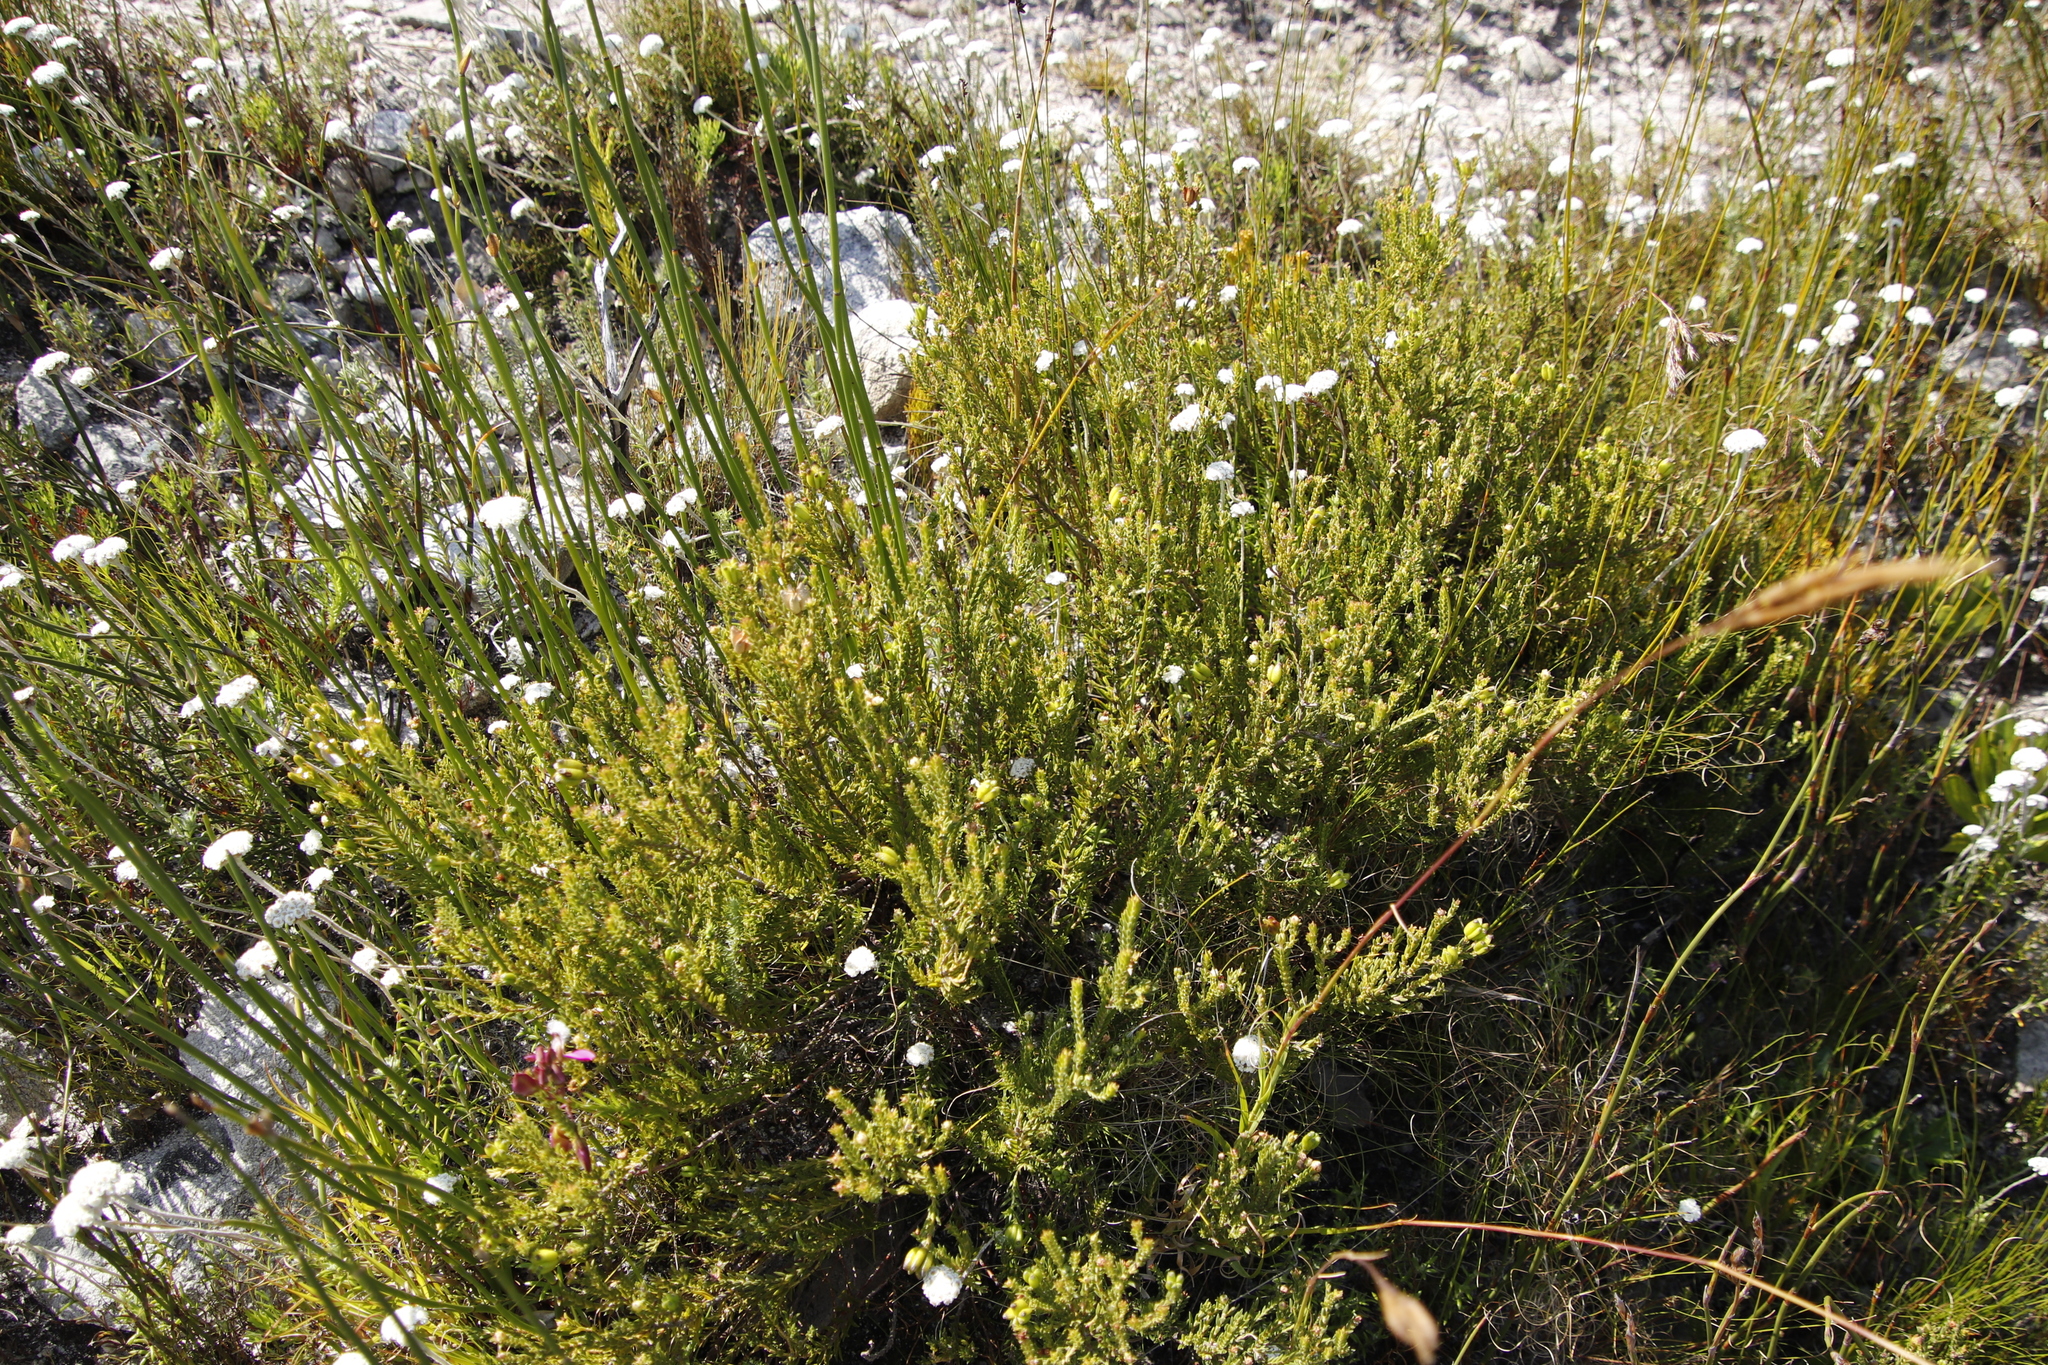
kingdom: Plantae
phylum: Tracheophyta
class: Magnoliopsida
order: Sapindales
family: Rutaceae
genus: Diosma
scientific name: Diosma oppositifolia
